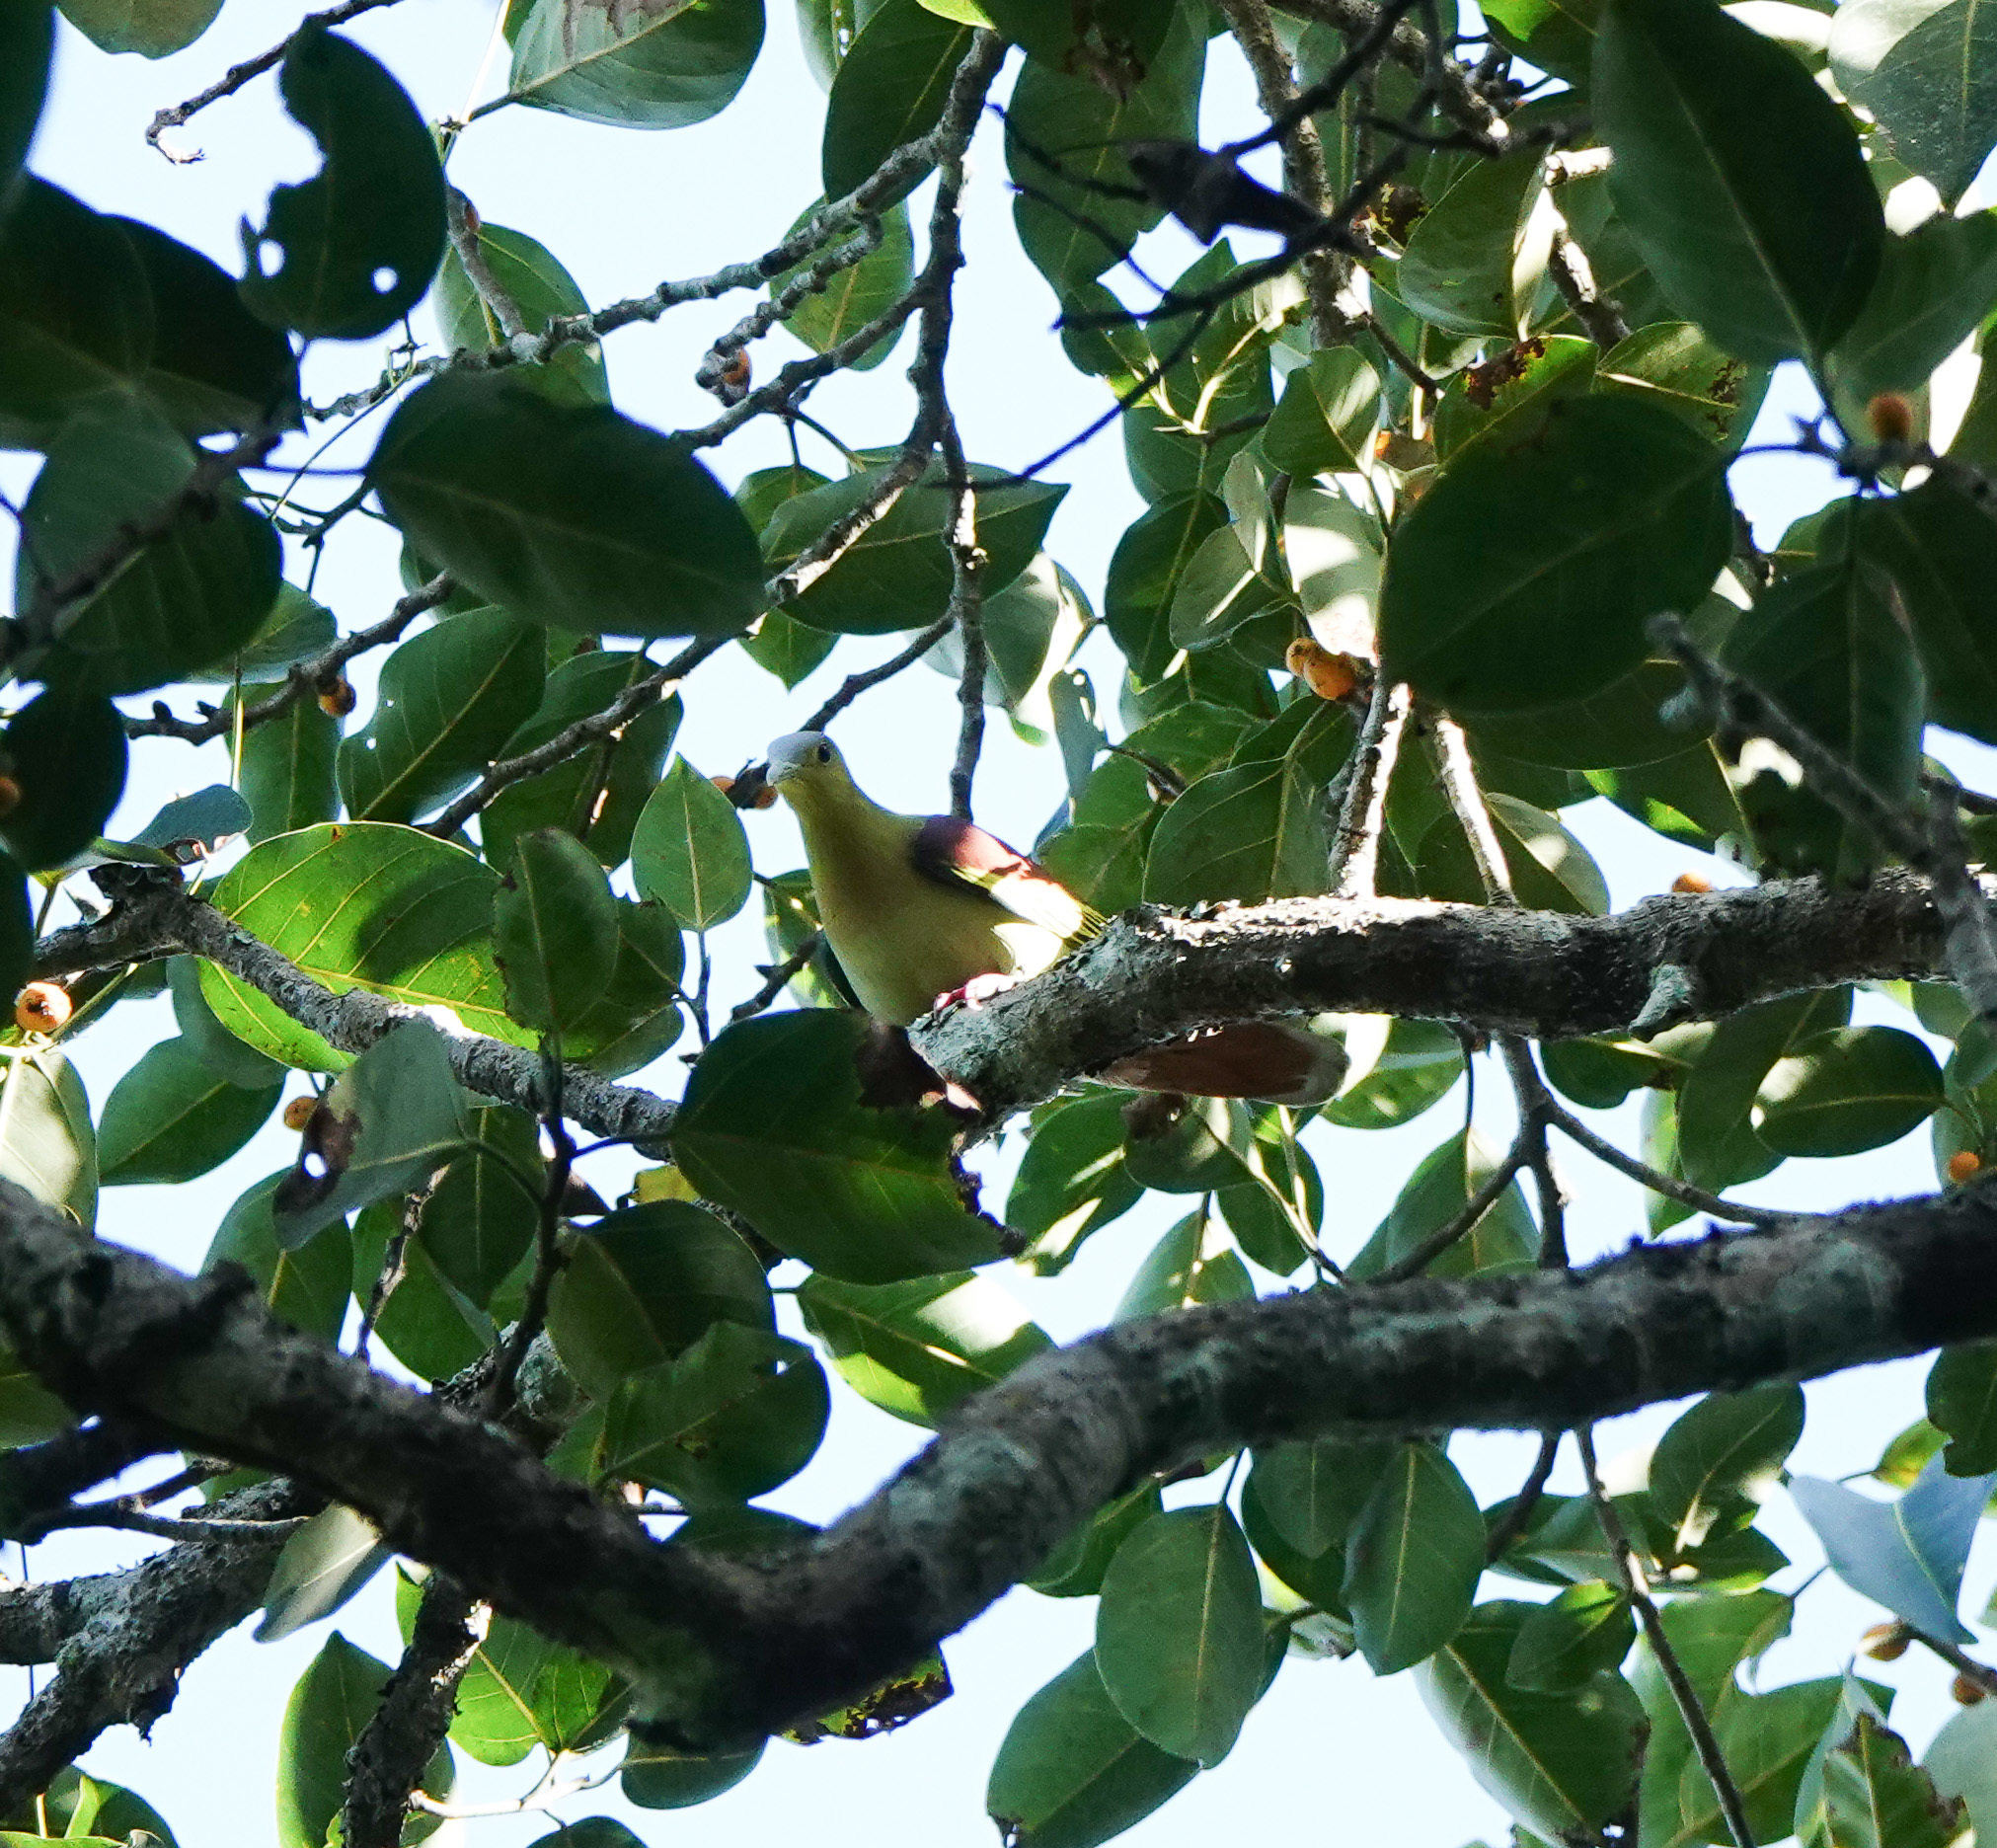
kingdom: Animalia
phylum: Chordata
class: Aves
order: Columbiformes
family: Columbidae
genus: Treron
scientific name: Treron phayrei
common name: Ashy-headed green pigeon
